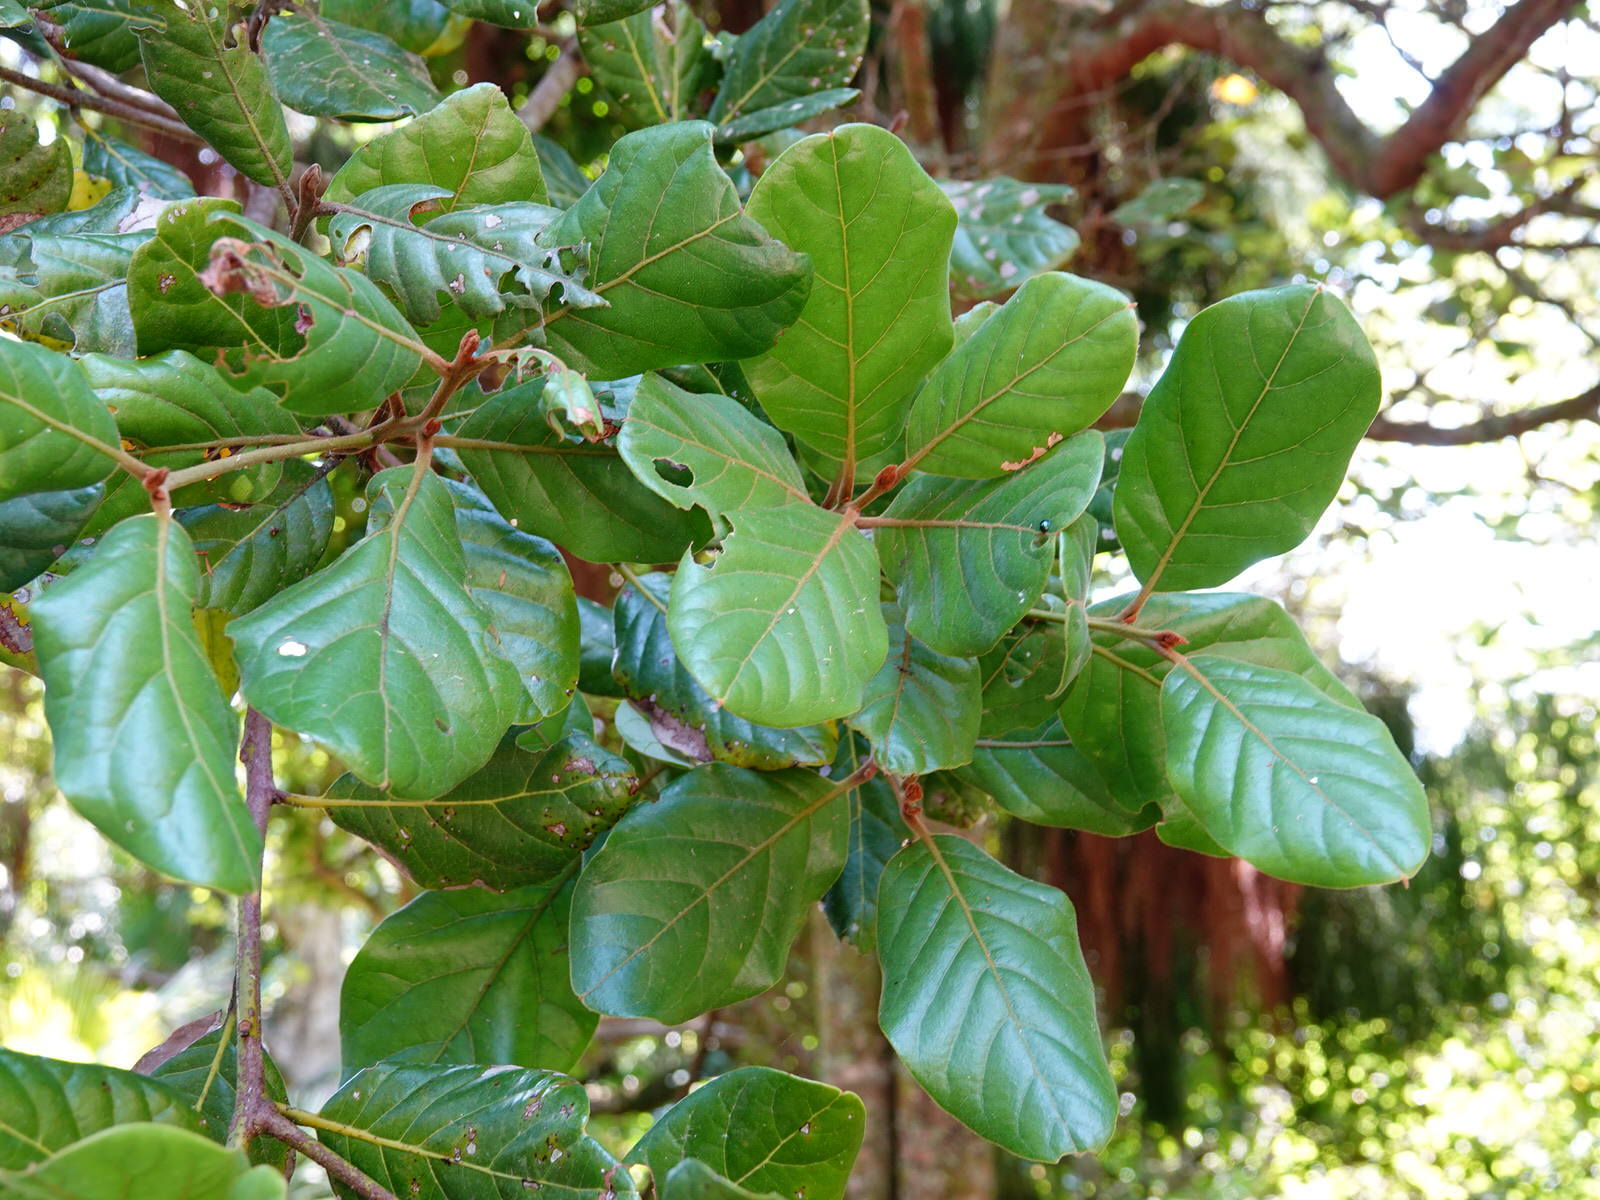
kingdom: Plantae
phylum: Tracheophyta
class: Magnoliopsida
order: Laurales
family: Lauraceae
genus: Beilschmiedia
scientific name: Beilschmiedia tarairi
